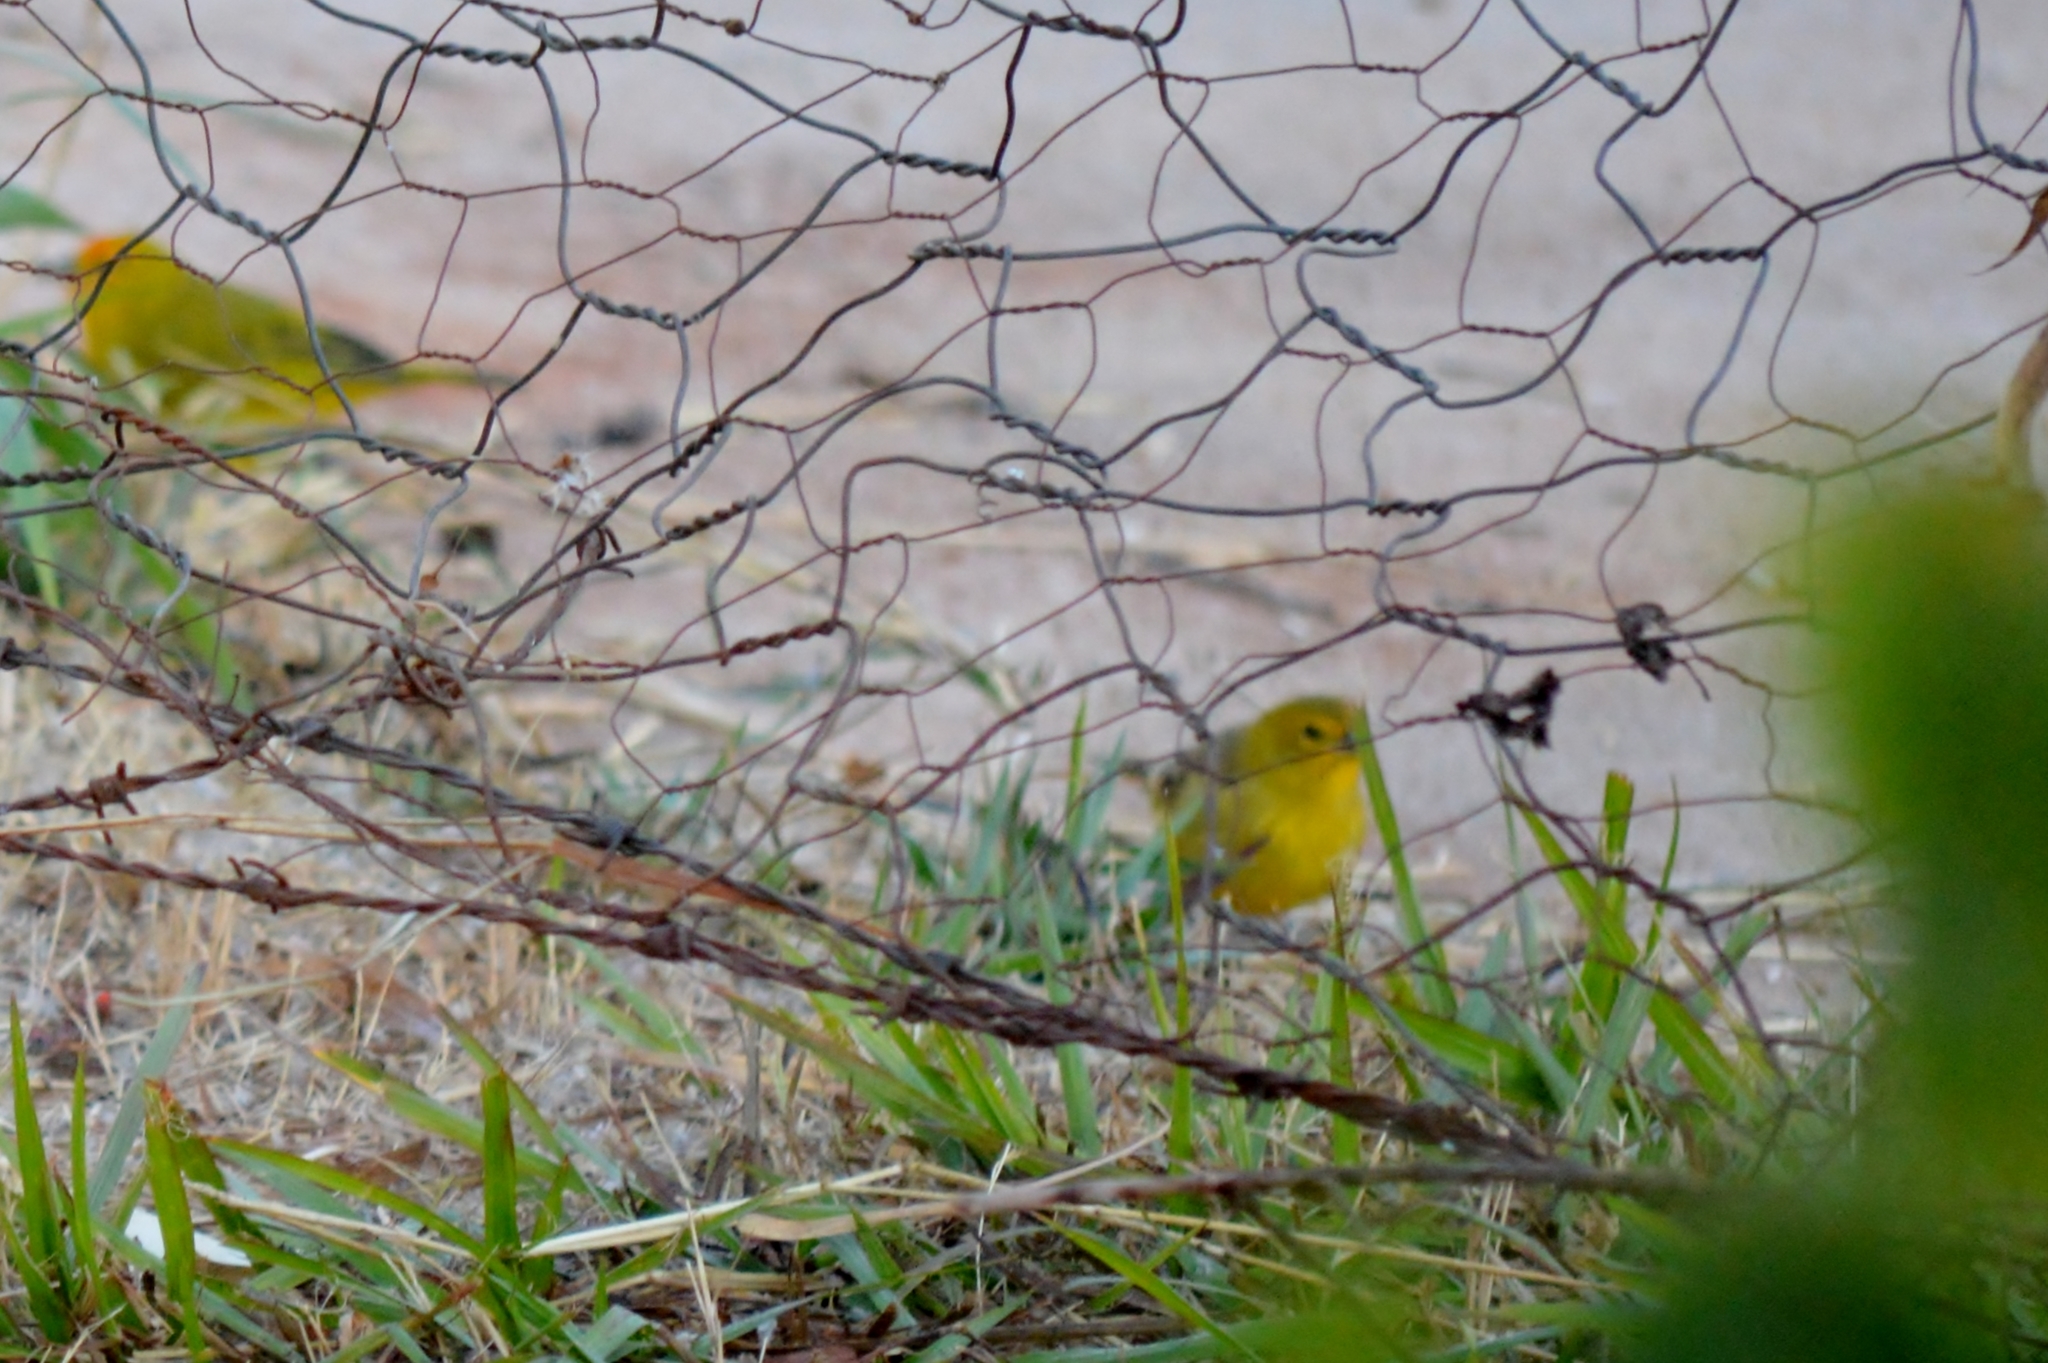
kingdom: Animalia
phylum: Chordata
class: Aves
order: Passeriformes
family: Thraupidae
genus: Sicalis
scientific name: Sicalis flaveola
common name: Saffron finch
